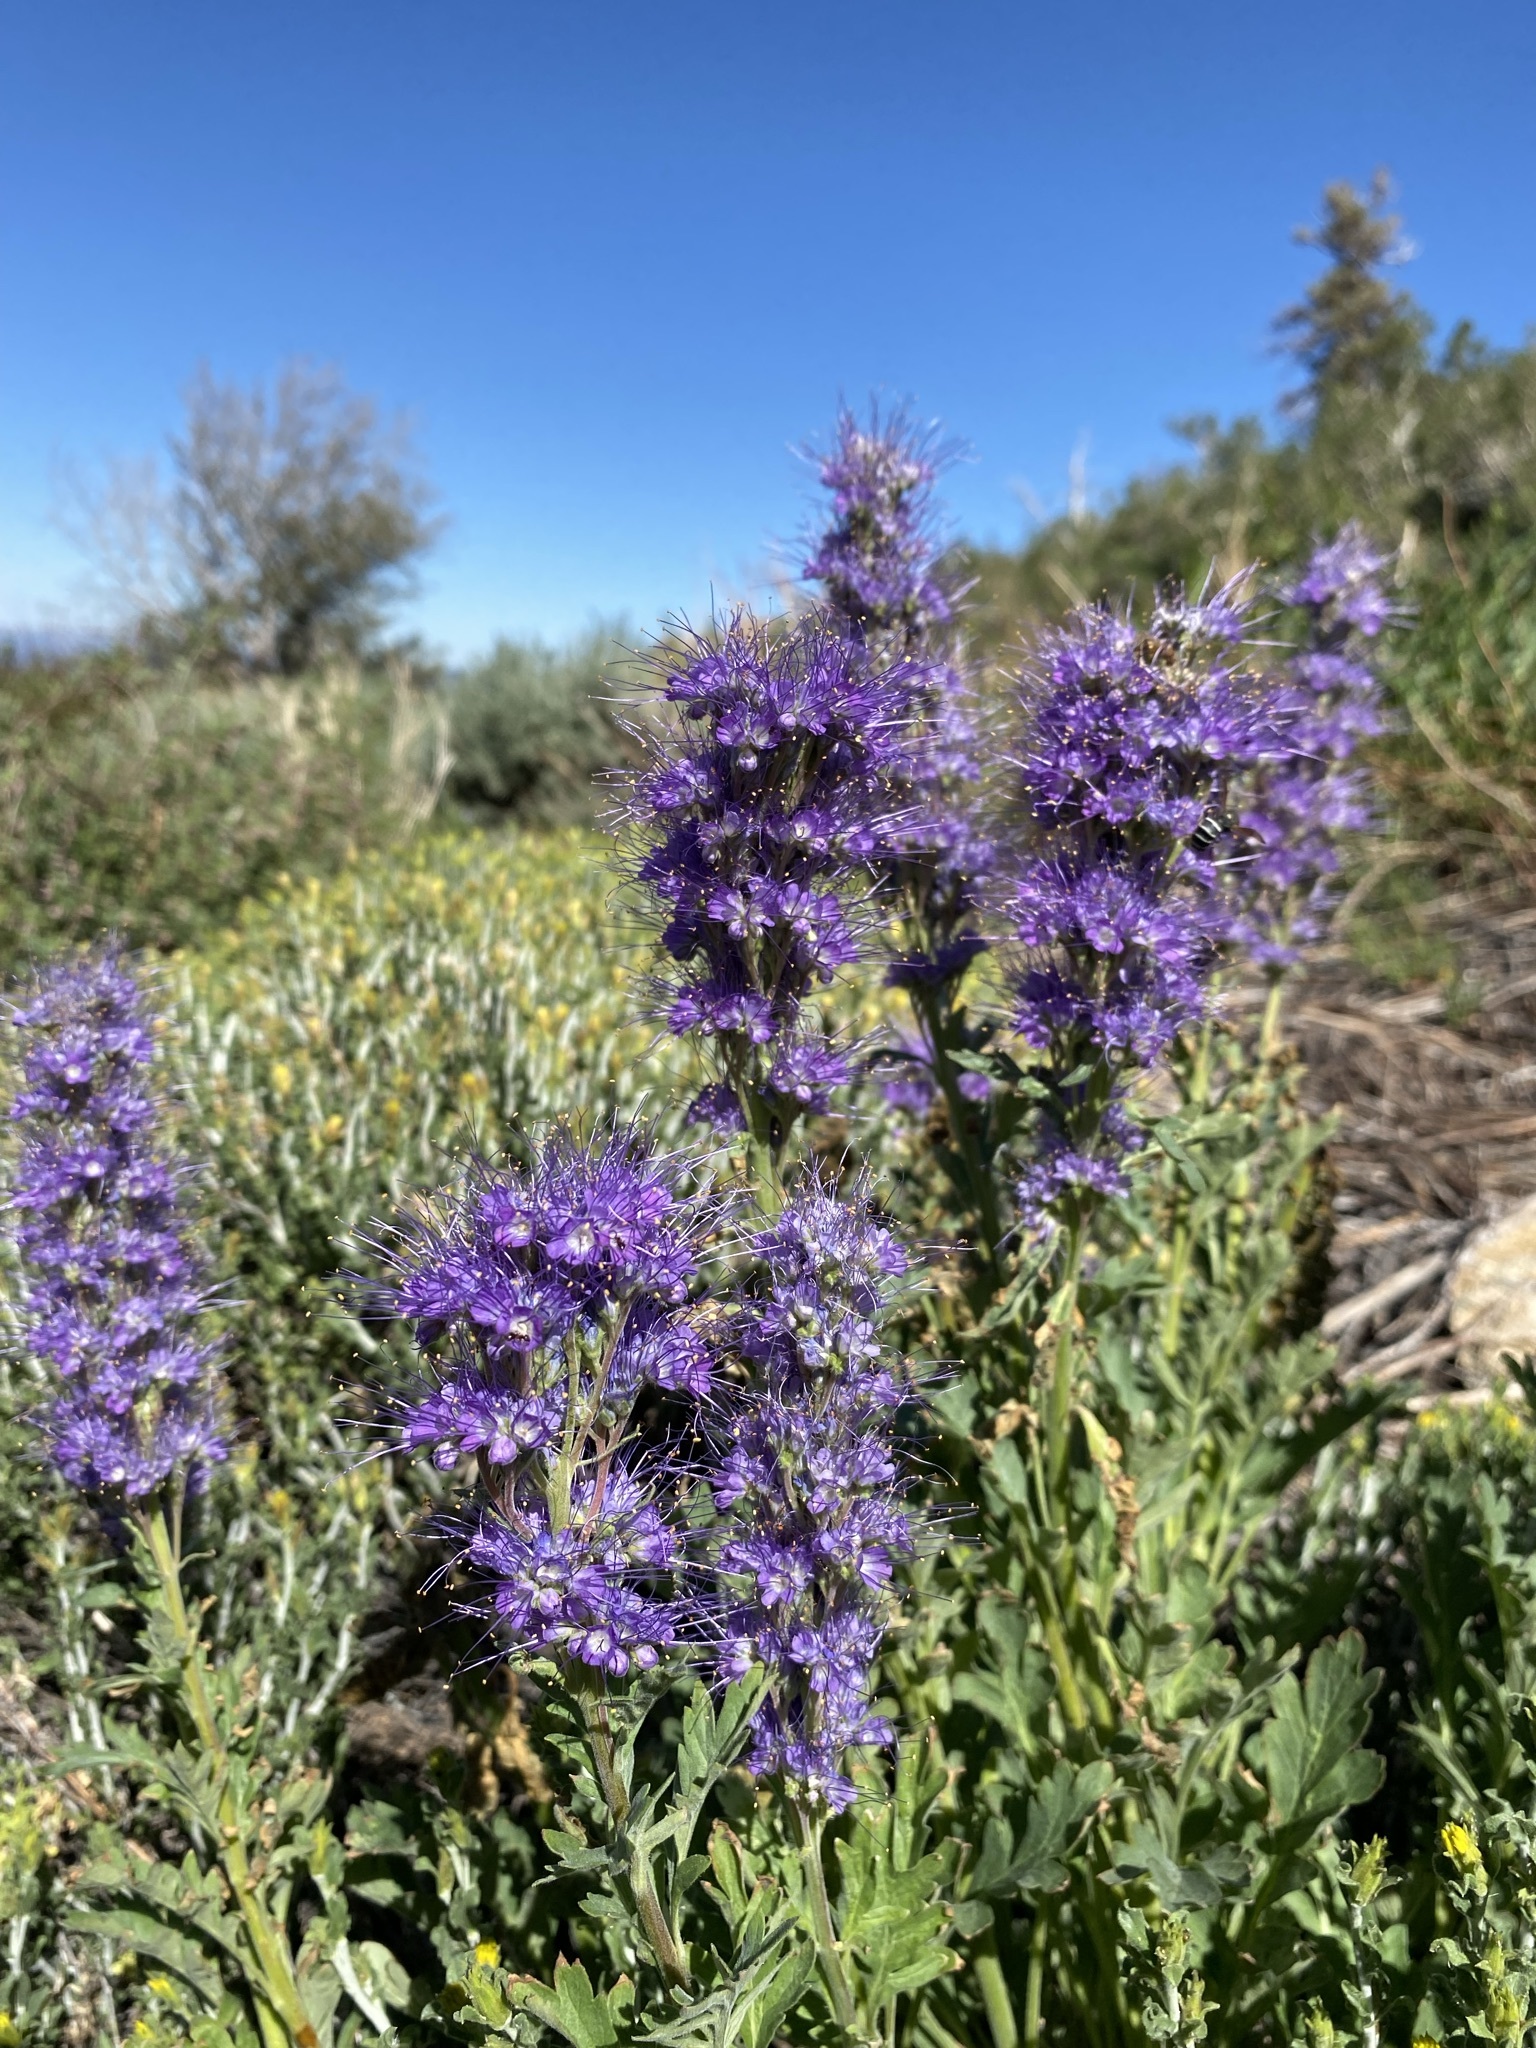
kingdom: Plantae
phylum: Tracheophyta
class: Magnoliopsida
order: Boraginales
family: Hydrophyllaceae
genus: Phacelia
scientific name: Phacelia sericea
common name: Silky phacelia
